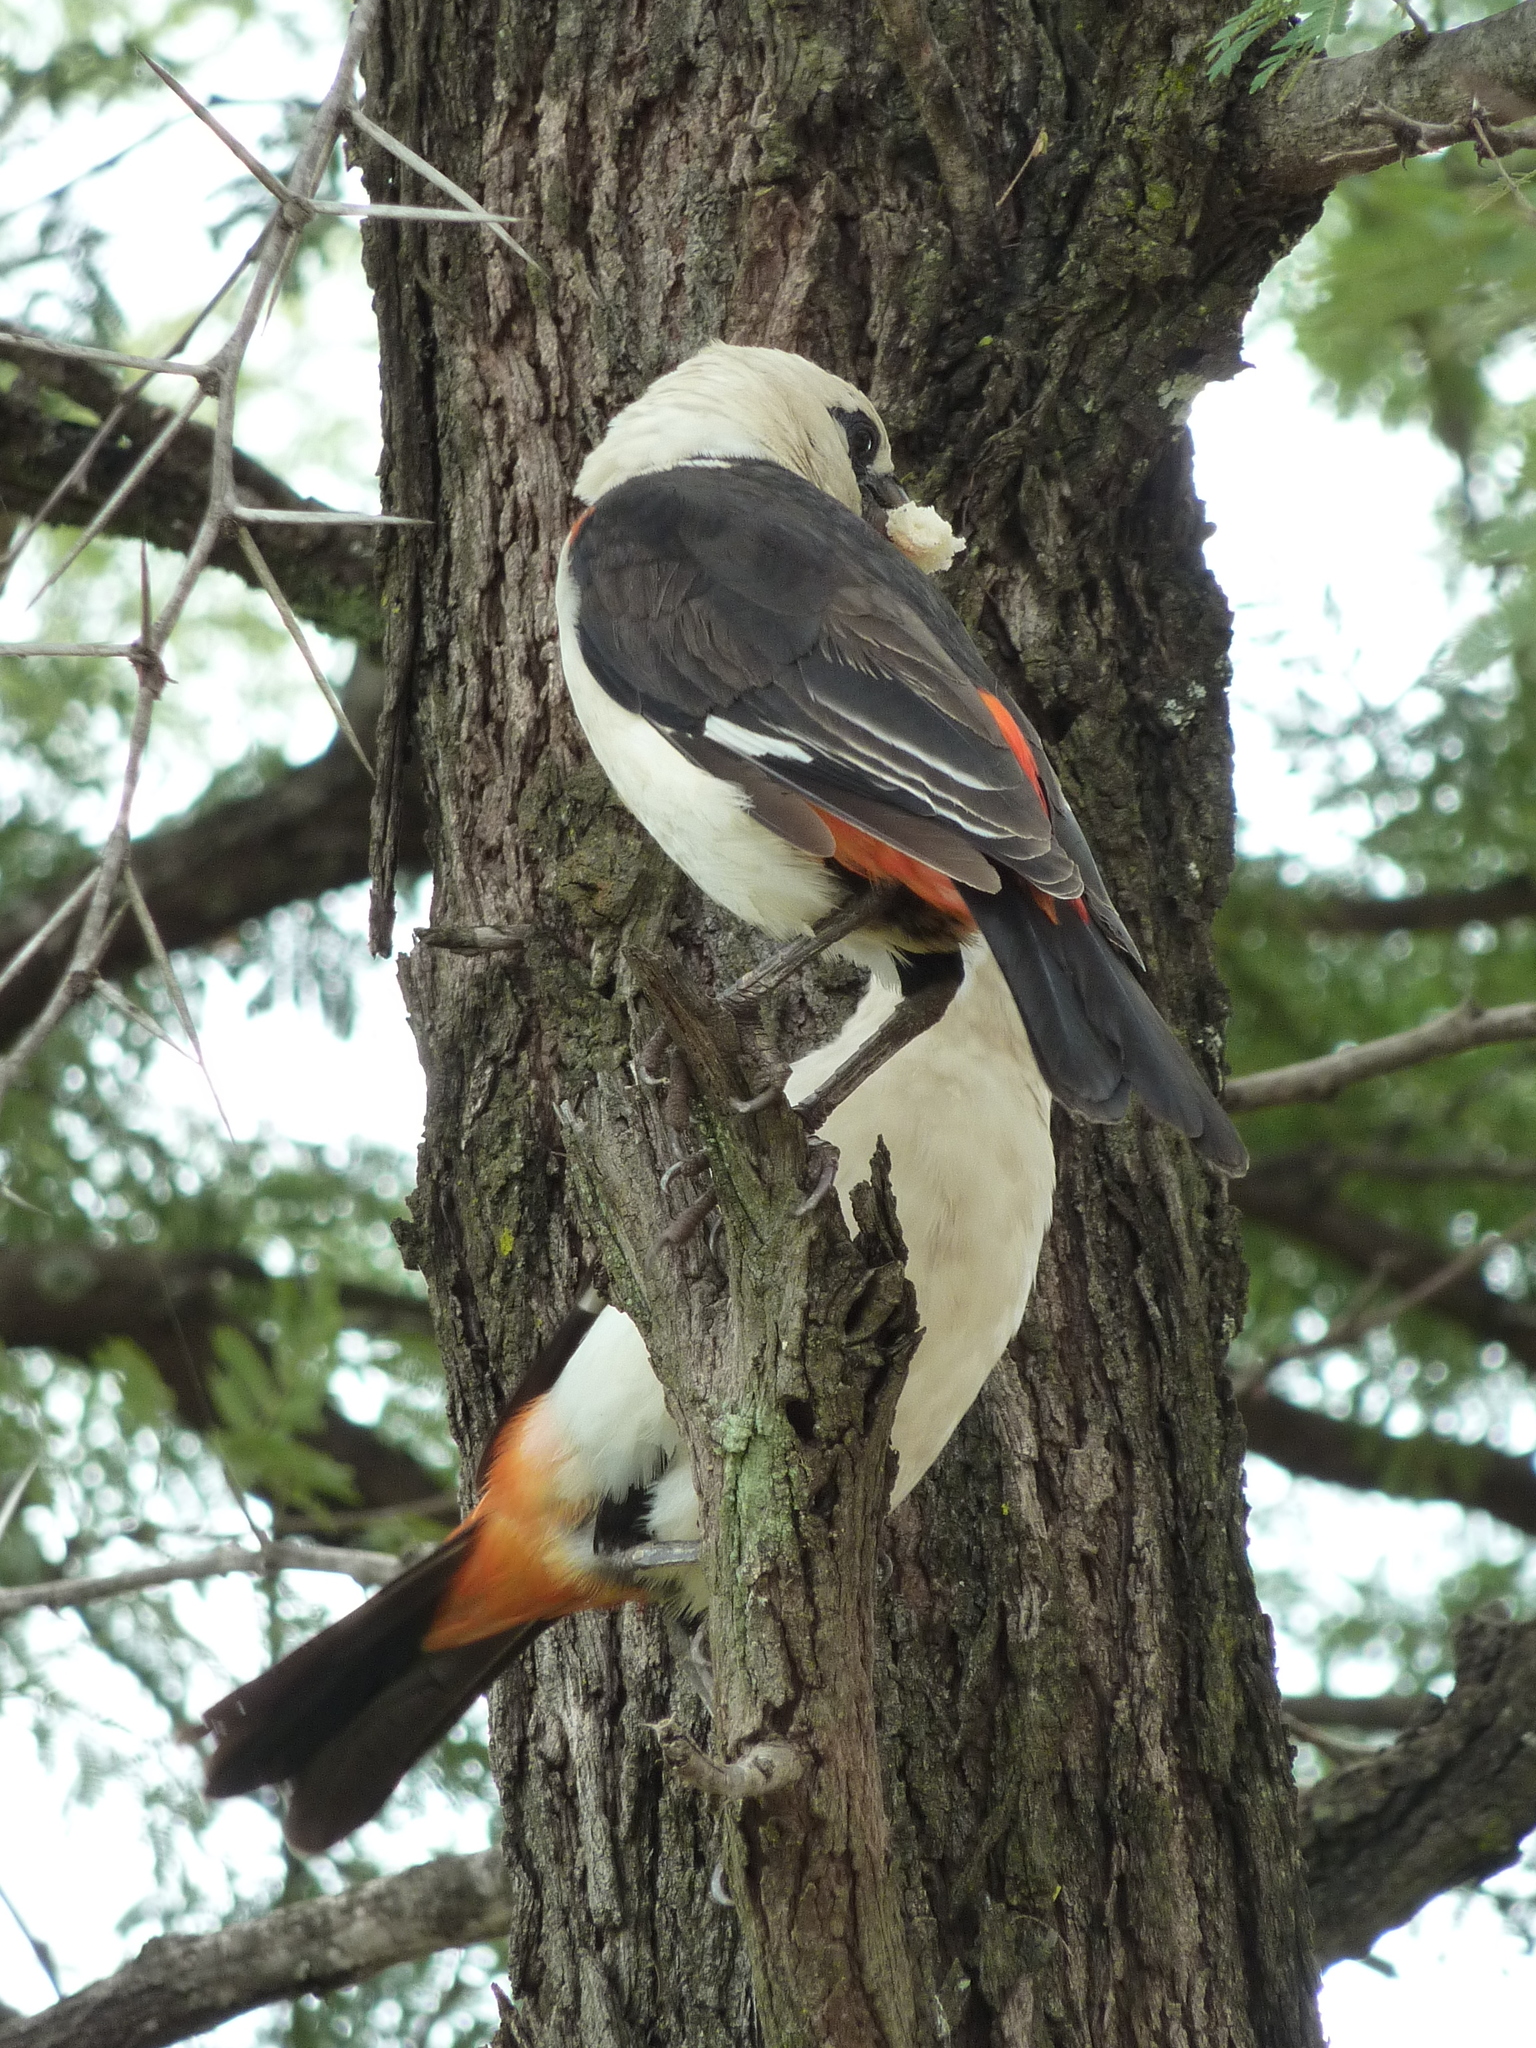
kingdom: Animalia
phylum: Chordata
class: Aves
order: Passeriformes
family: Ploceidae
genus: Dinemellia
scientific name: Dinemellia dinemelli
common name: White-headed buffalo weaver
